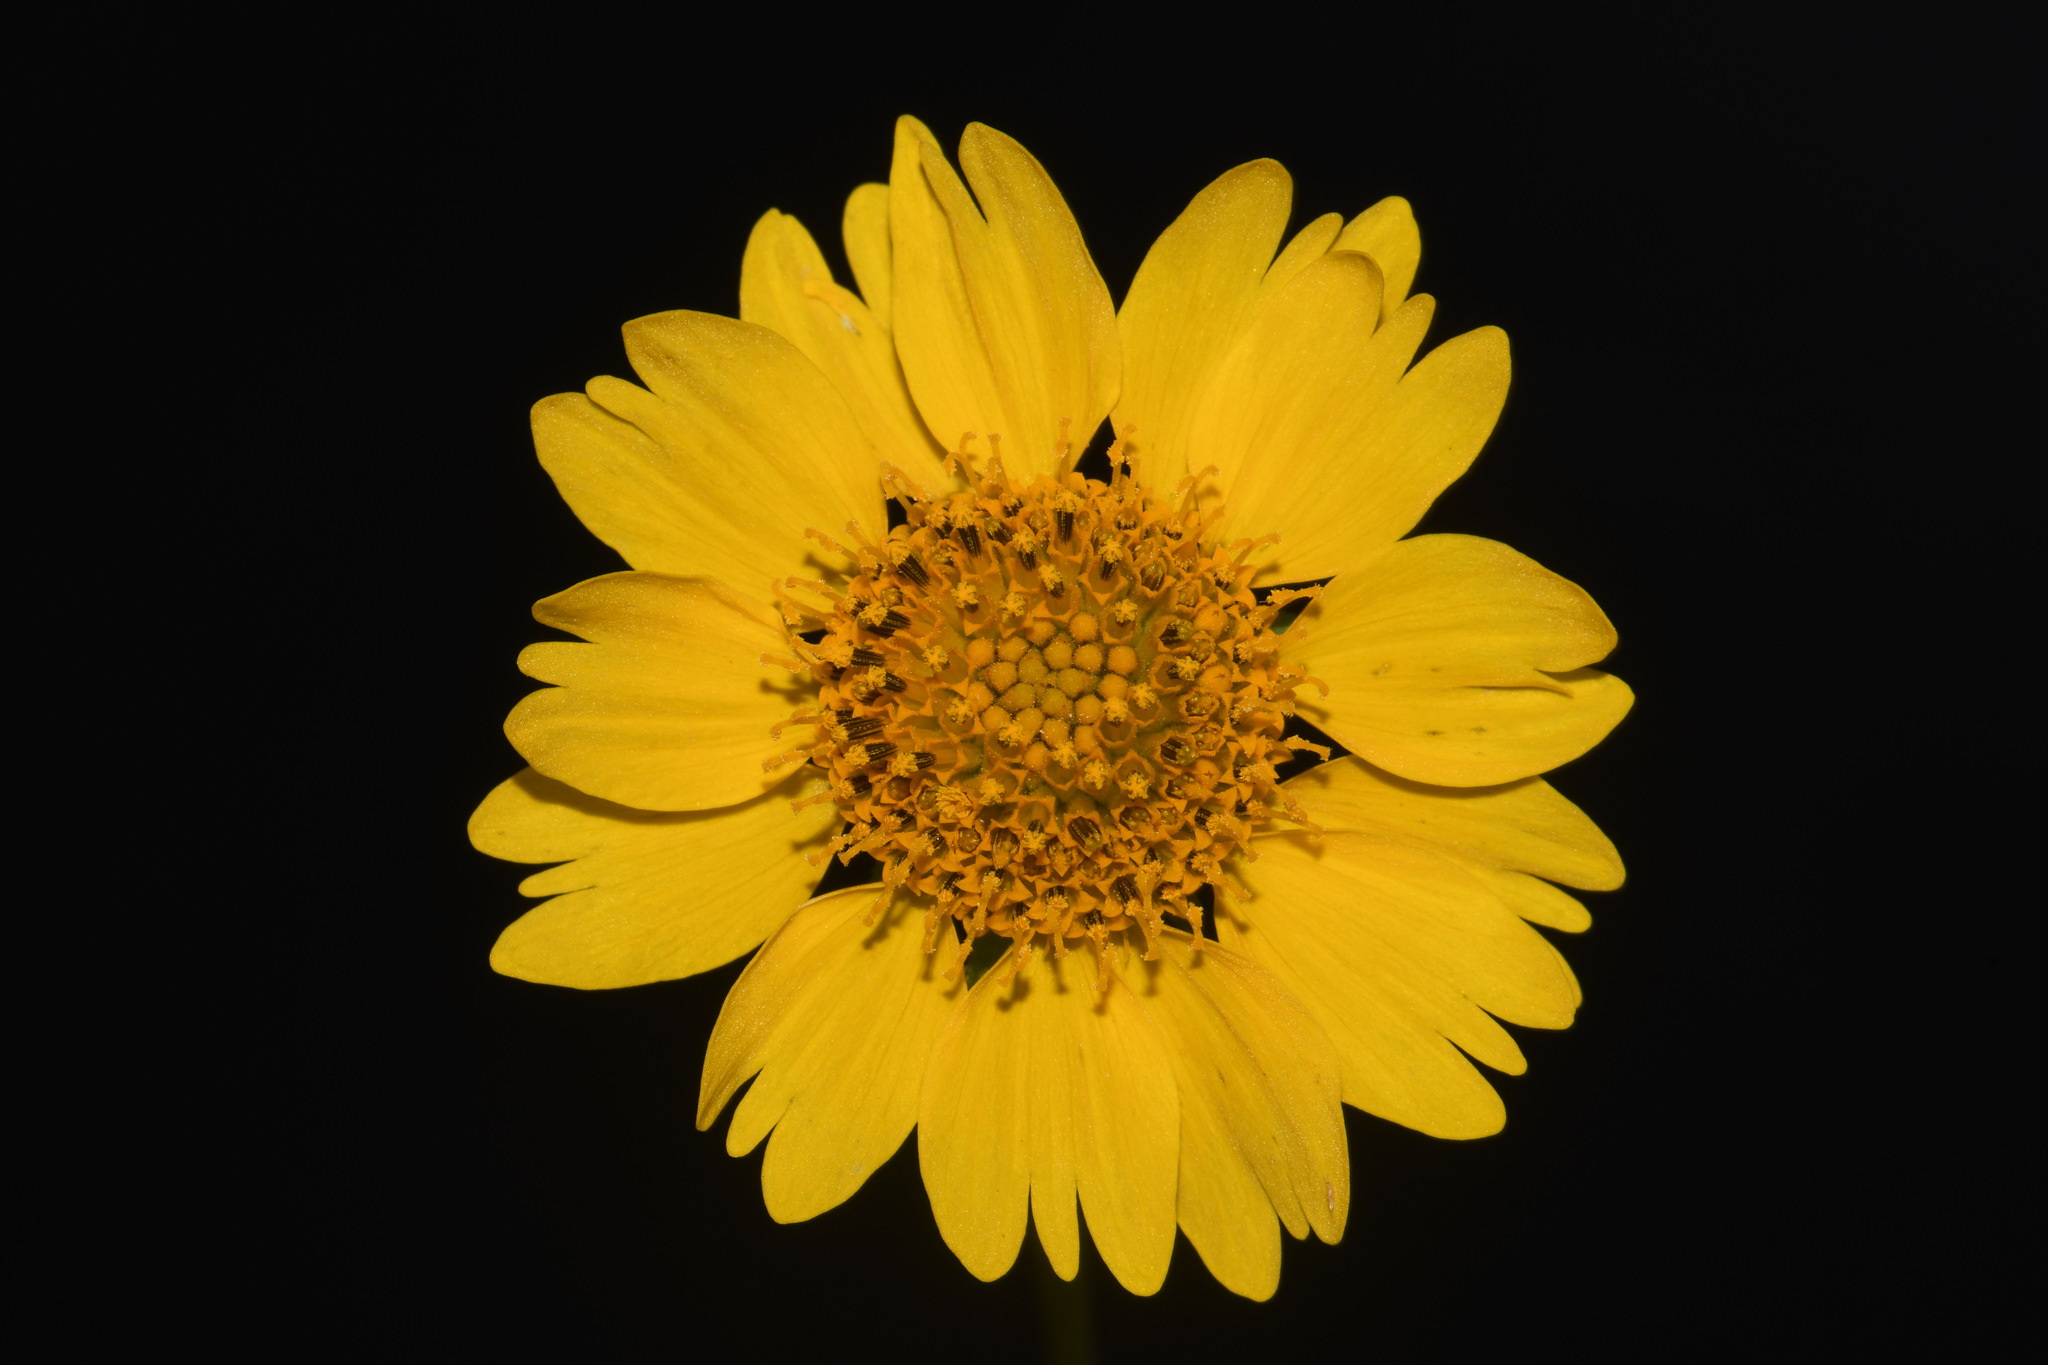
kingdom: Plantae
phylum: Tracheophyta
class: Magnoliopsida
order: Asterales
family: Asteraceae
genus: Verbesina
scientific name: Verbesina encelioides
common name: Golden crownbeard
